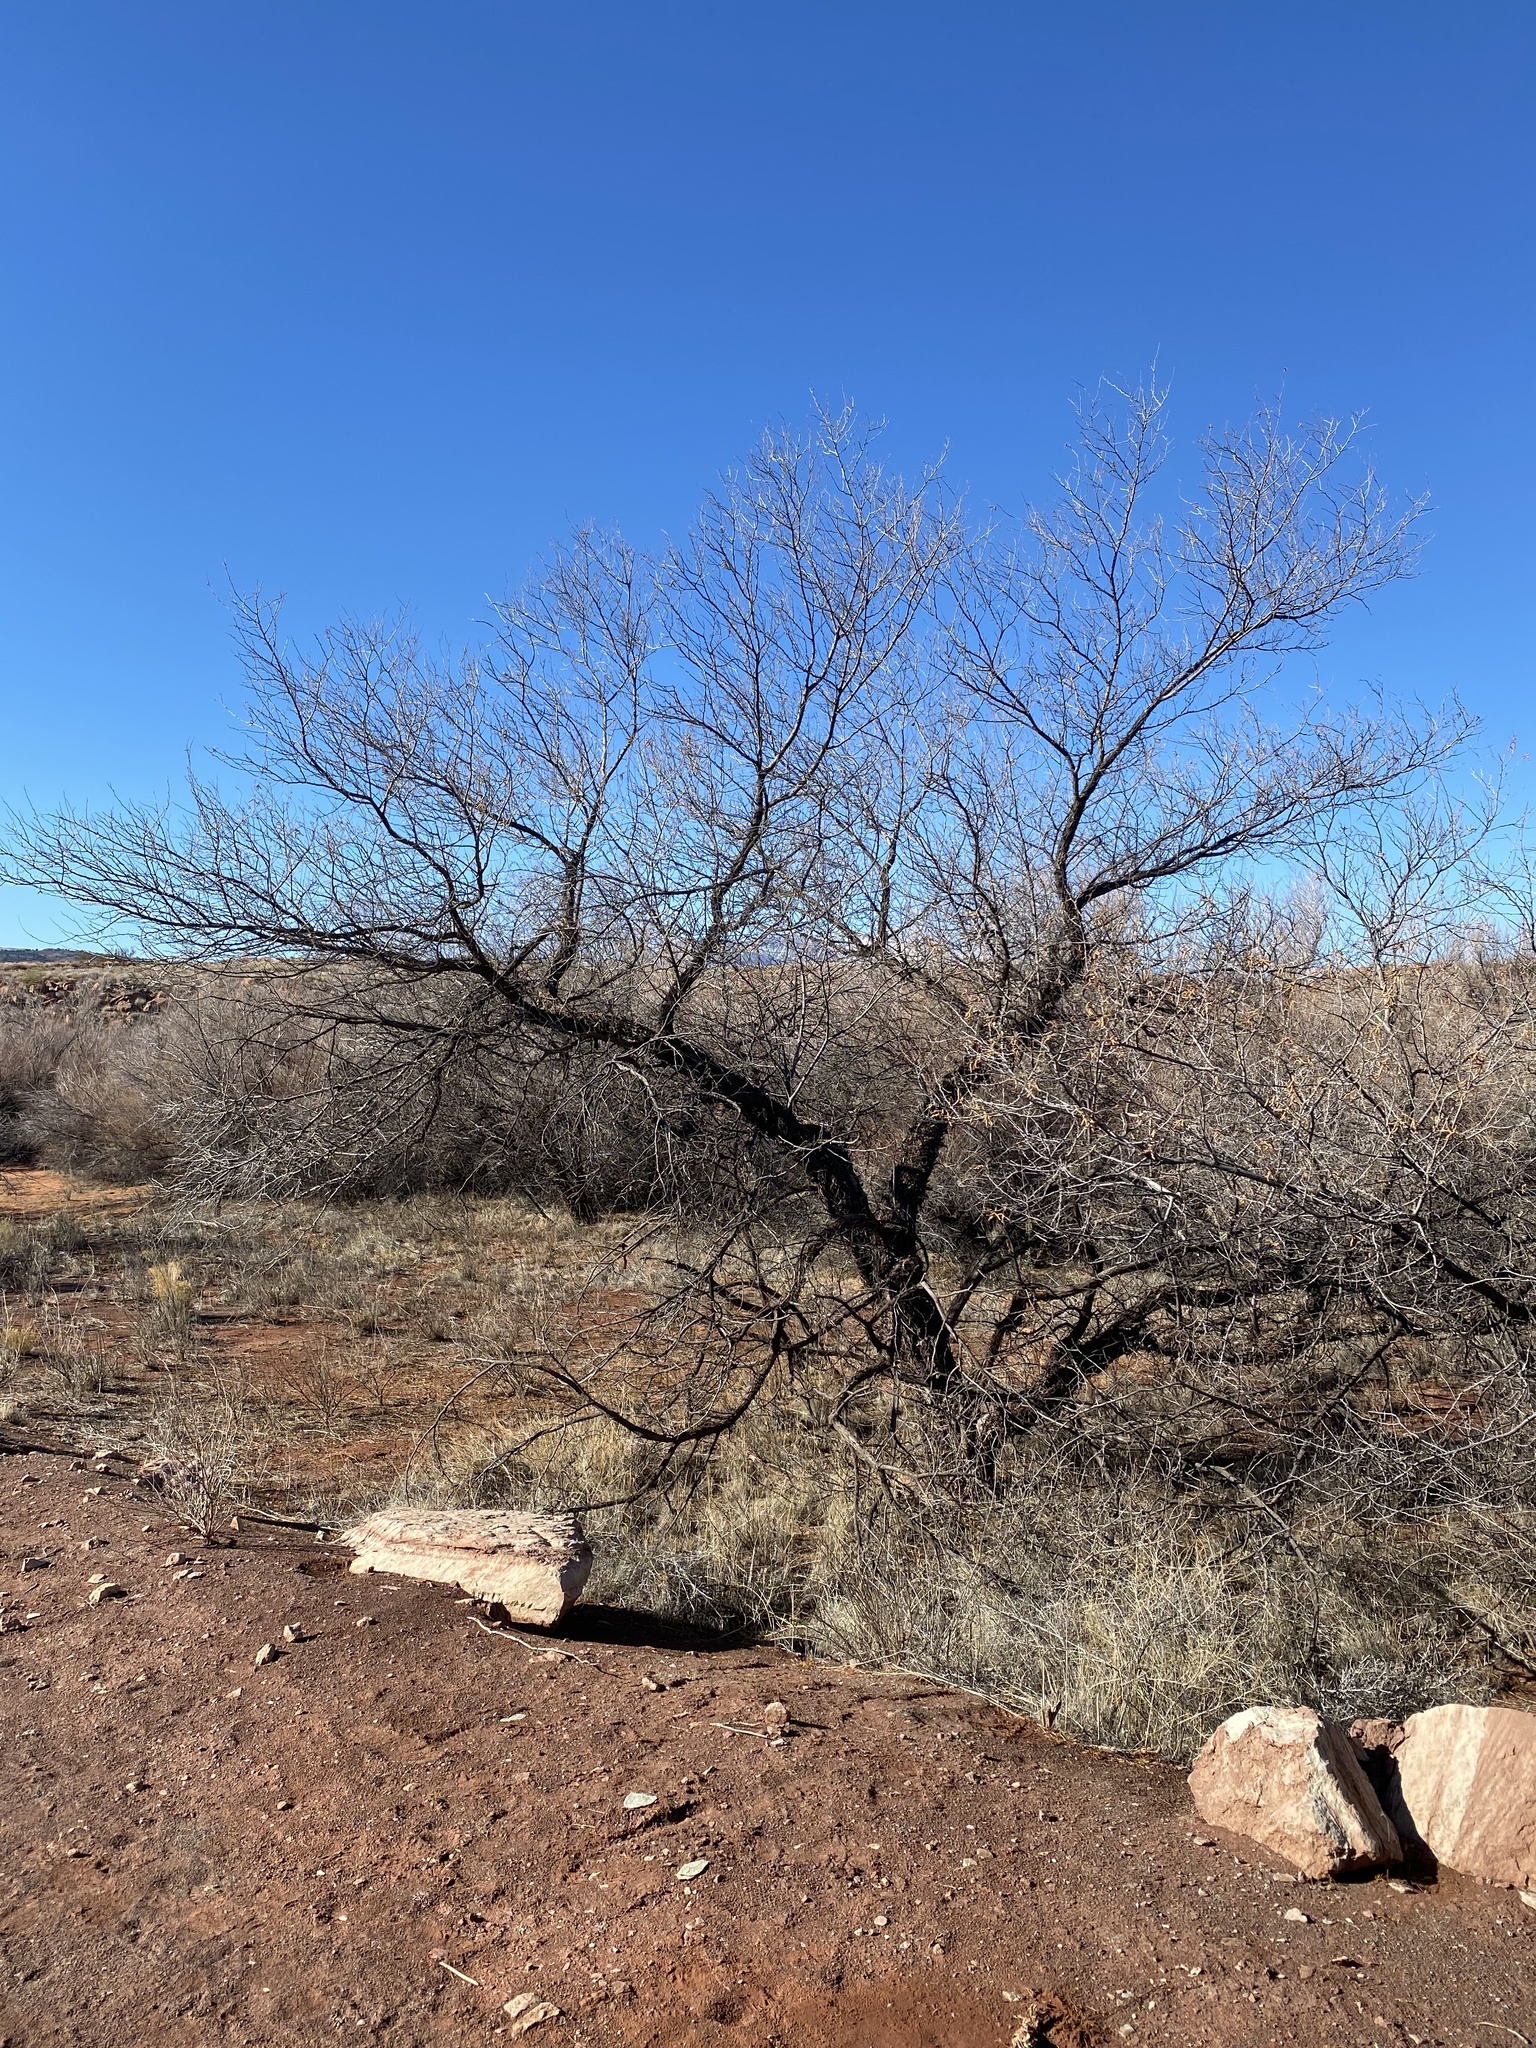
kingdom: Plantae
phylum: Tracheophyta
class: Magnoliopsida
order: Fabales
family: Fabaceae
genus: Prosopis
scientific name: Prosopis pubescens
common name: Screw-bean
